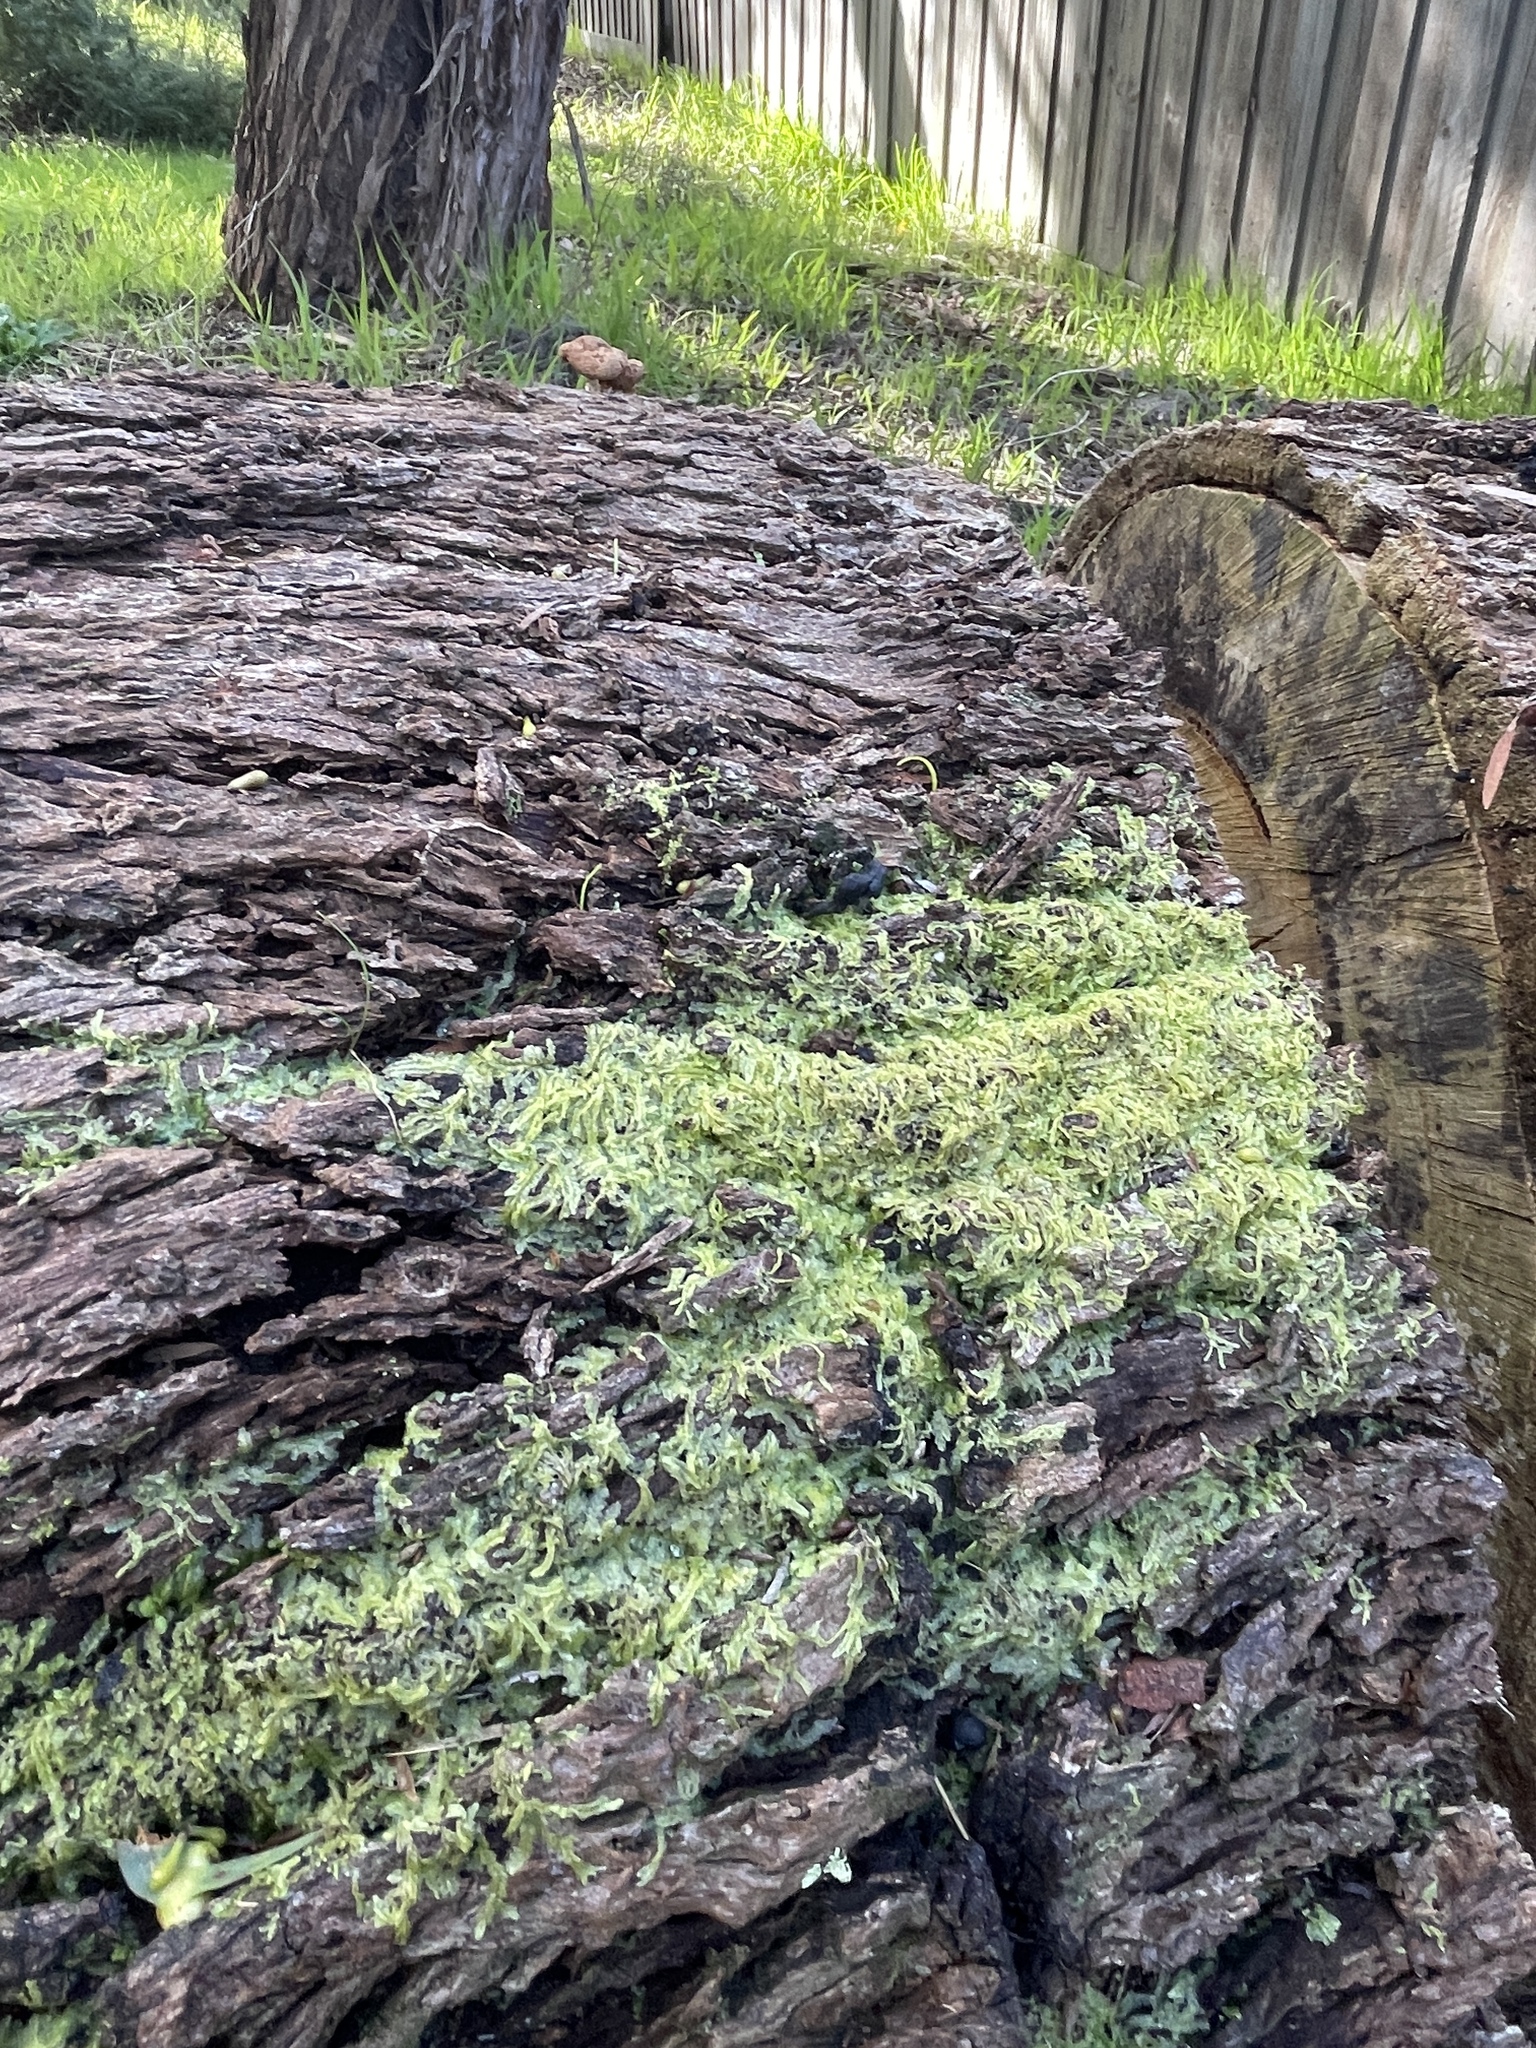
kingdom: Plantae
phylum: Marchantiophyta
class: Jungermanniopsida
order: Jungermanniales
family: Lophocoleaceae
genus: Lophocolea
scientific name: Lophocolea semiteres
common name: Southern crestwort
